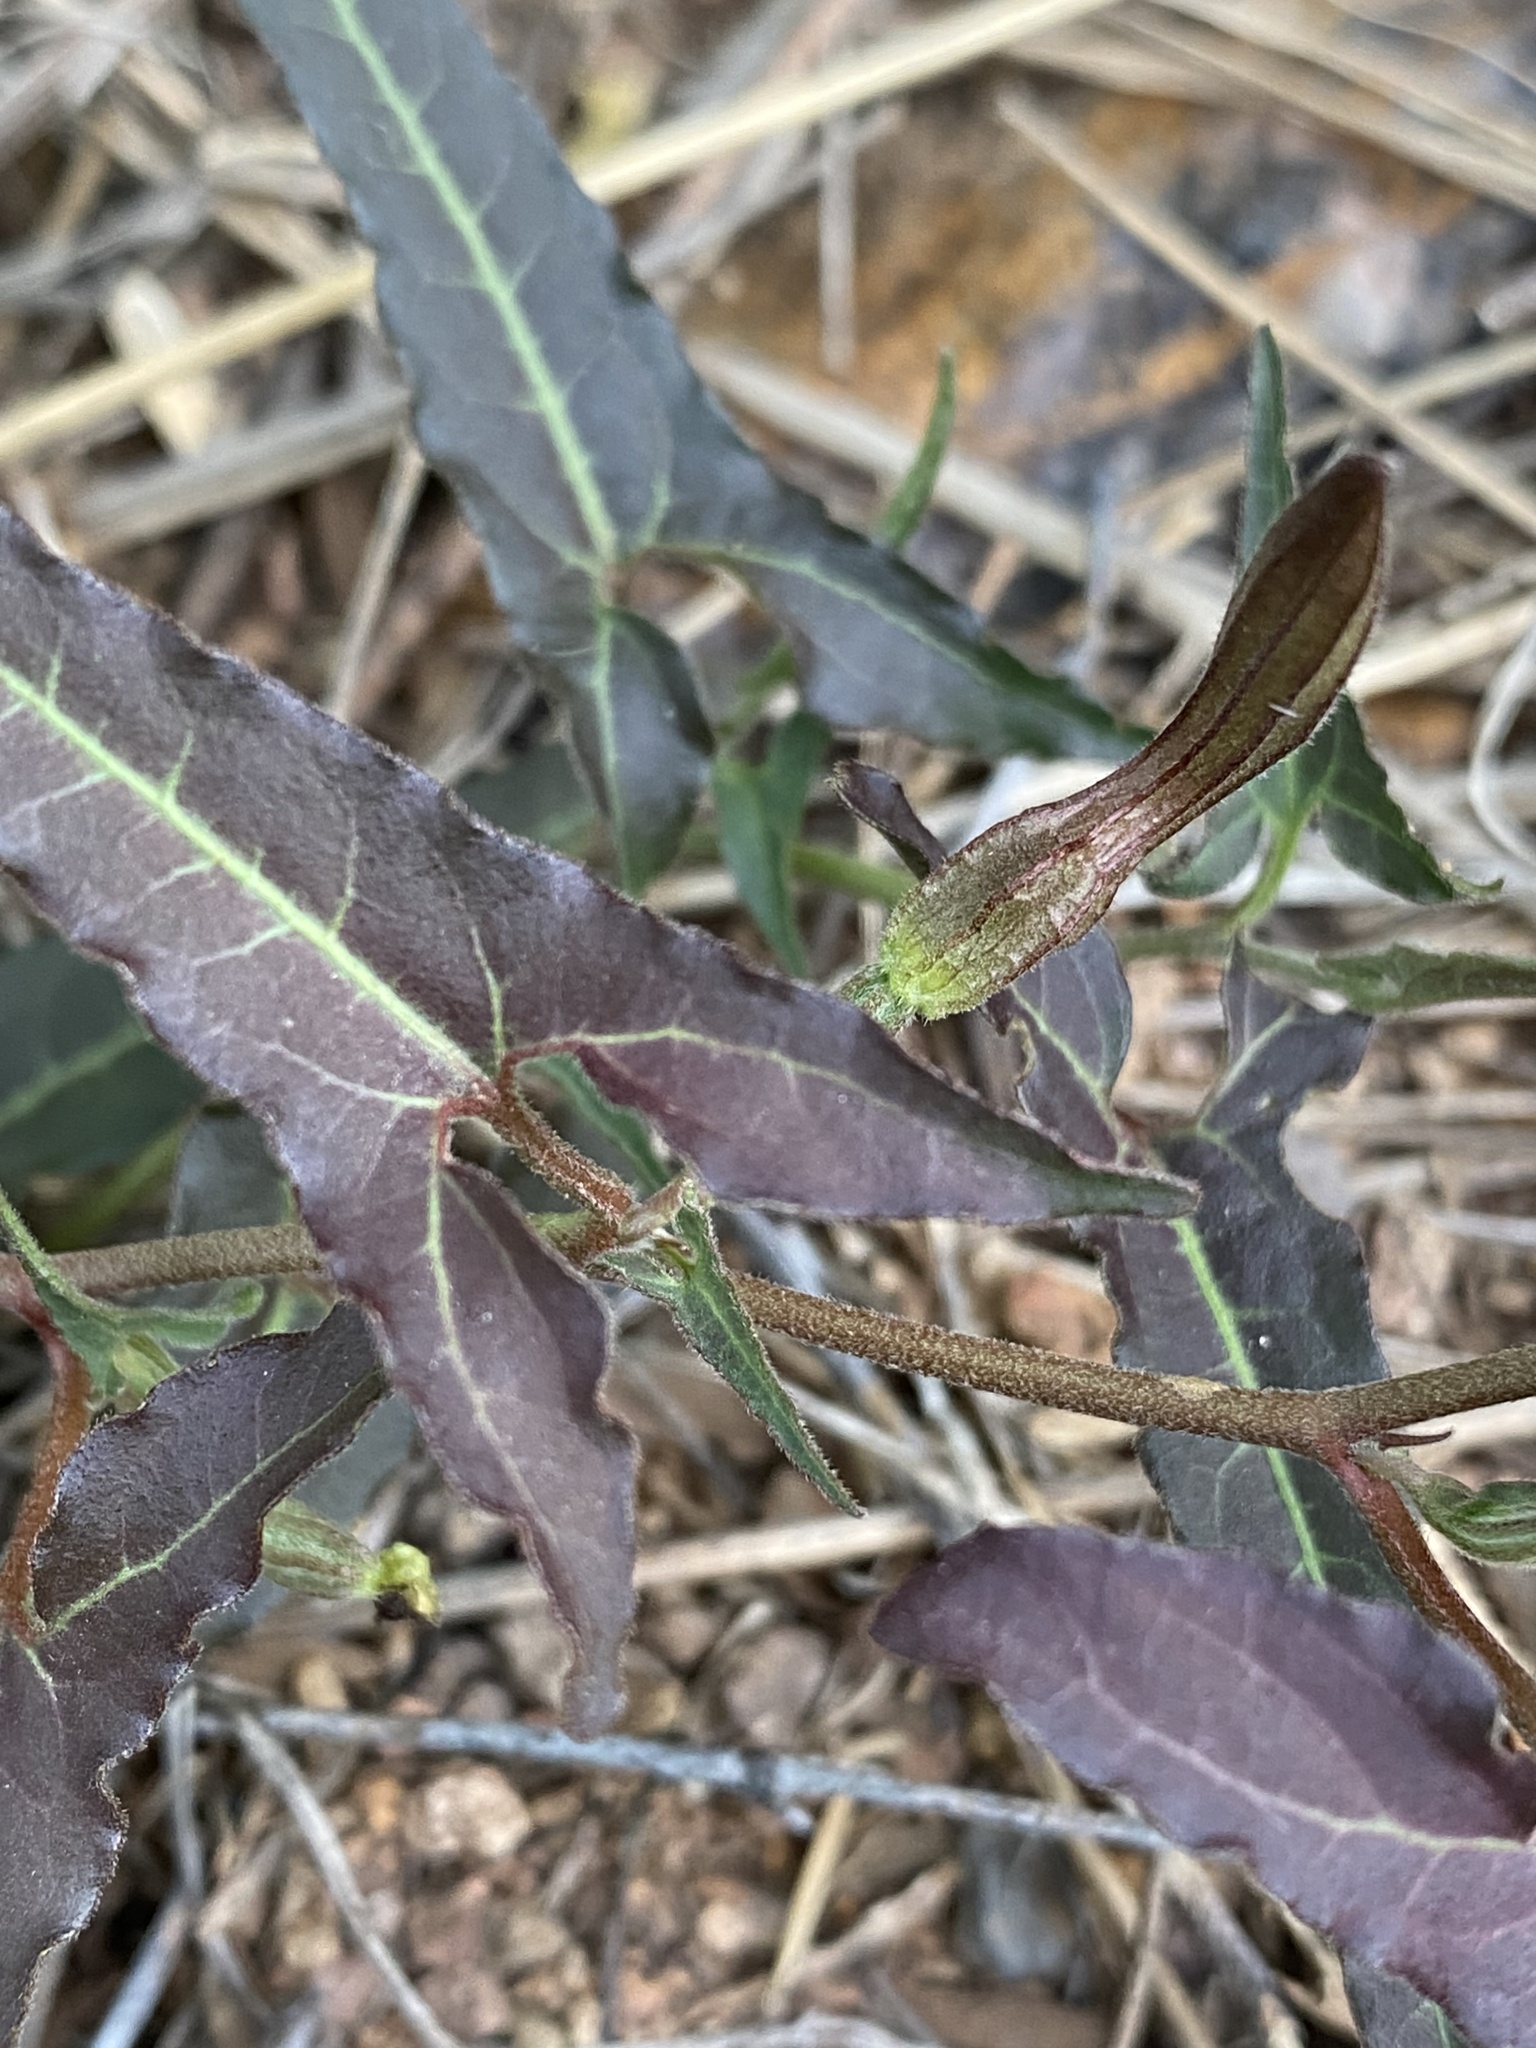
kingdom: Plantae
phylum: Tracheophyta
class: Magnoliopsida
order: Piperales
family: Aristolochiaceae
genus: Aristolochia
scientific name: Aristolochia watsonii
